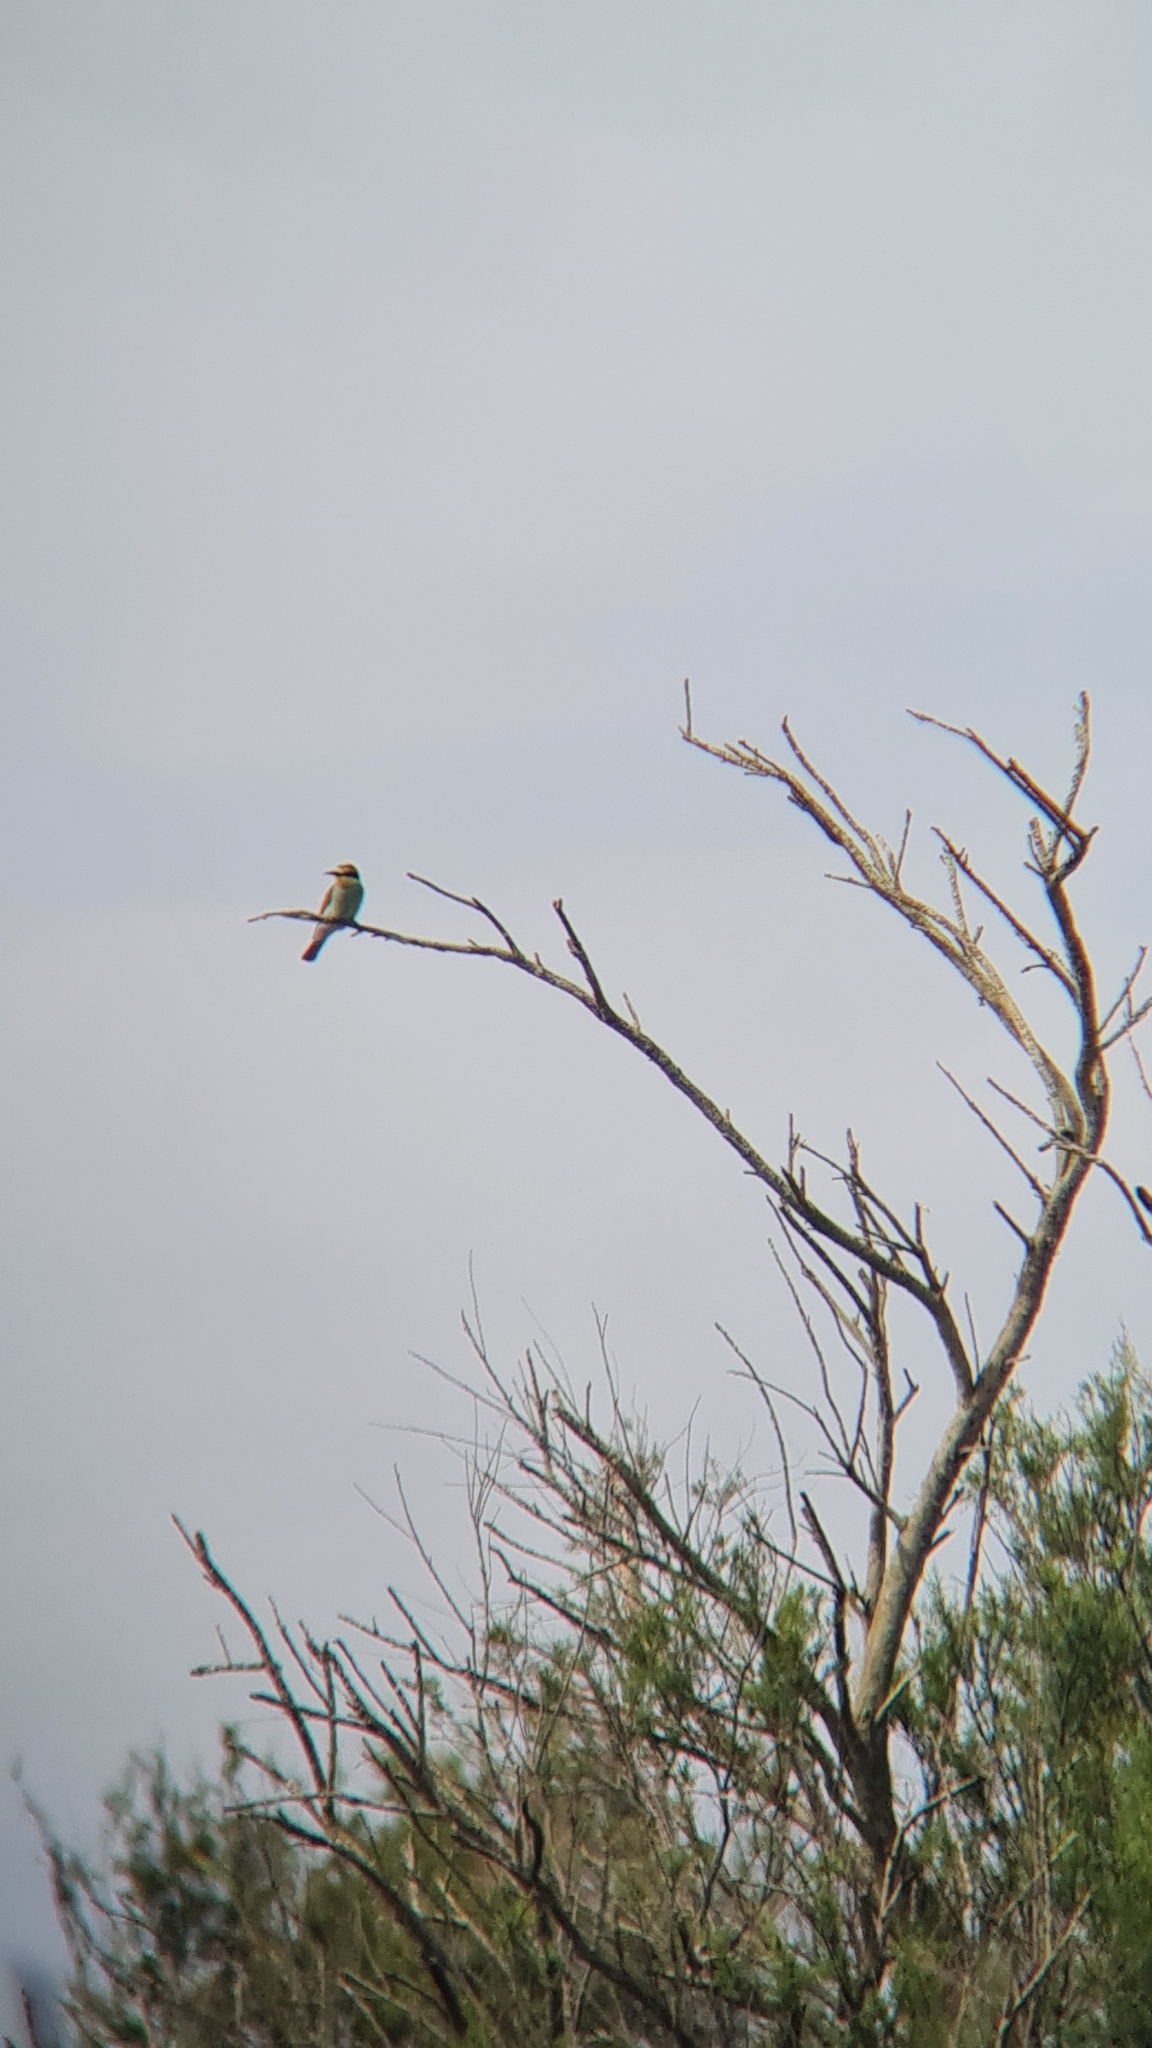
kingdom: Animalia
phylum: Chordata
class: Aves
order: Coraciiformes
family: Meropidae
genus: Merops
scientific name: Merops apiaster
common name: European bee-eater
